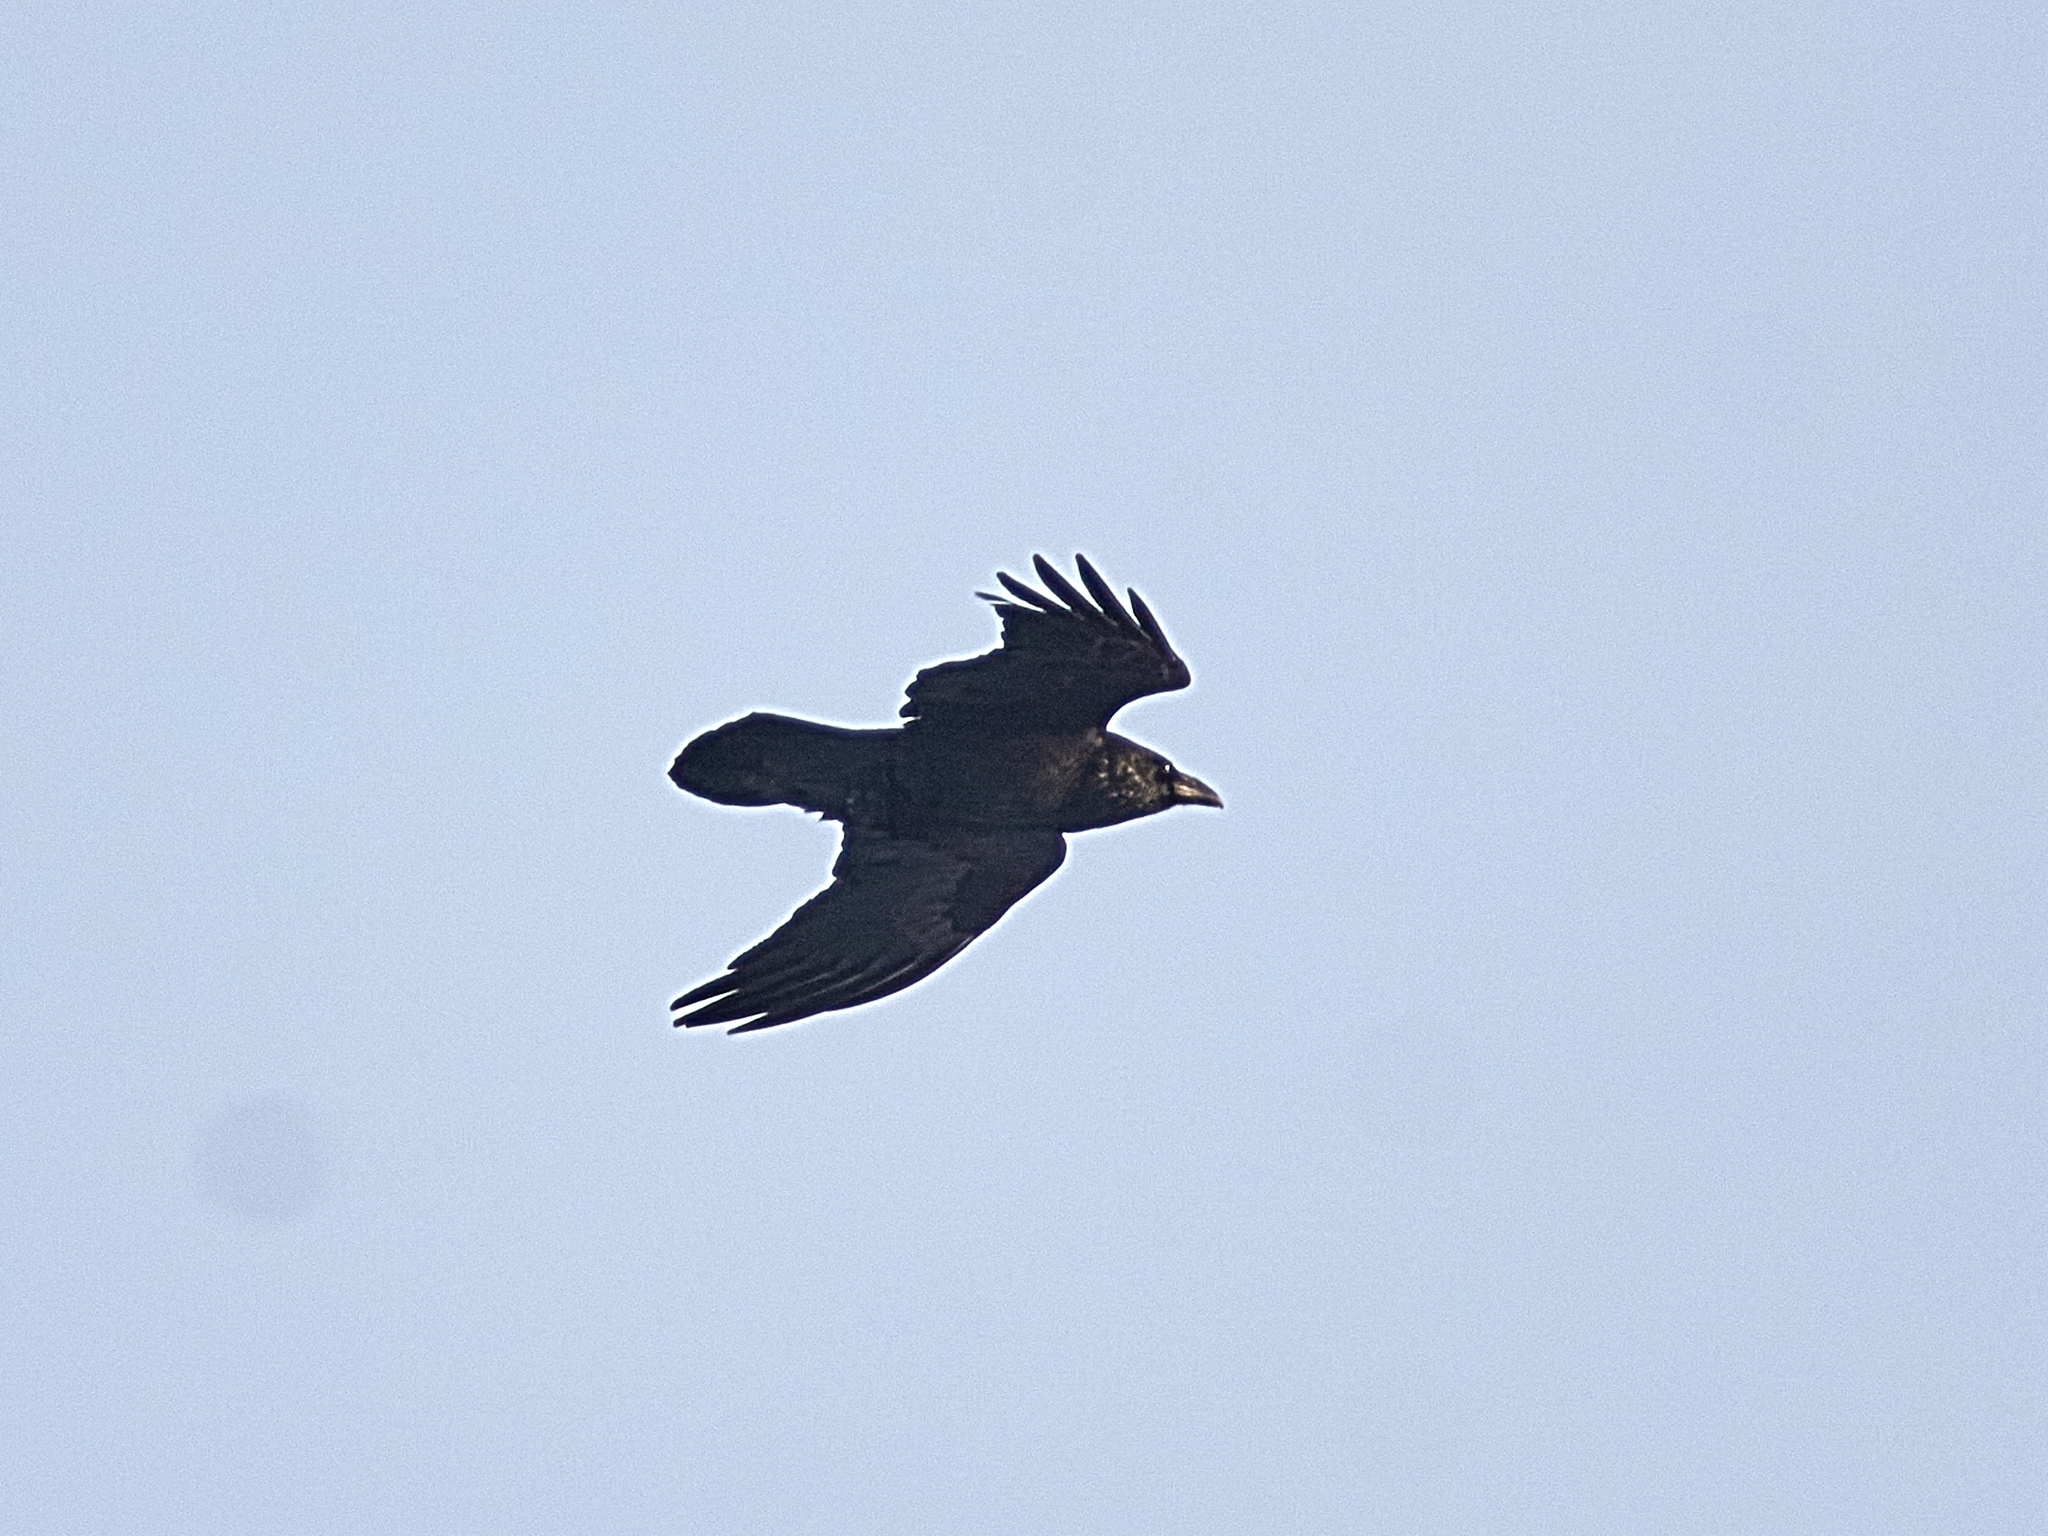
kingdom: Animalia
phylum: Chordata
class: Aves
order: Passeriformes
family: Corvidae
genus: Corvus
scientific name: Corvus corax
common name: Common raven
